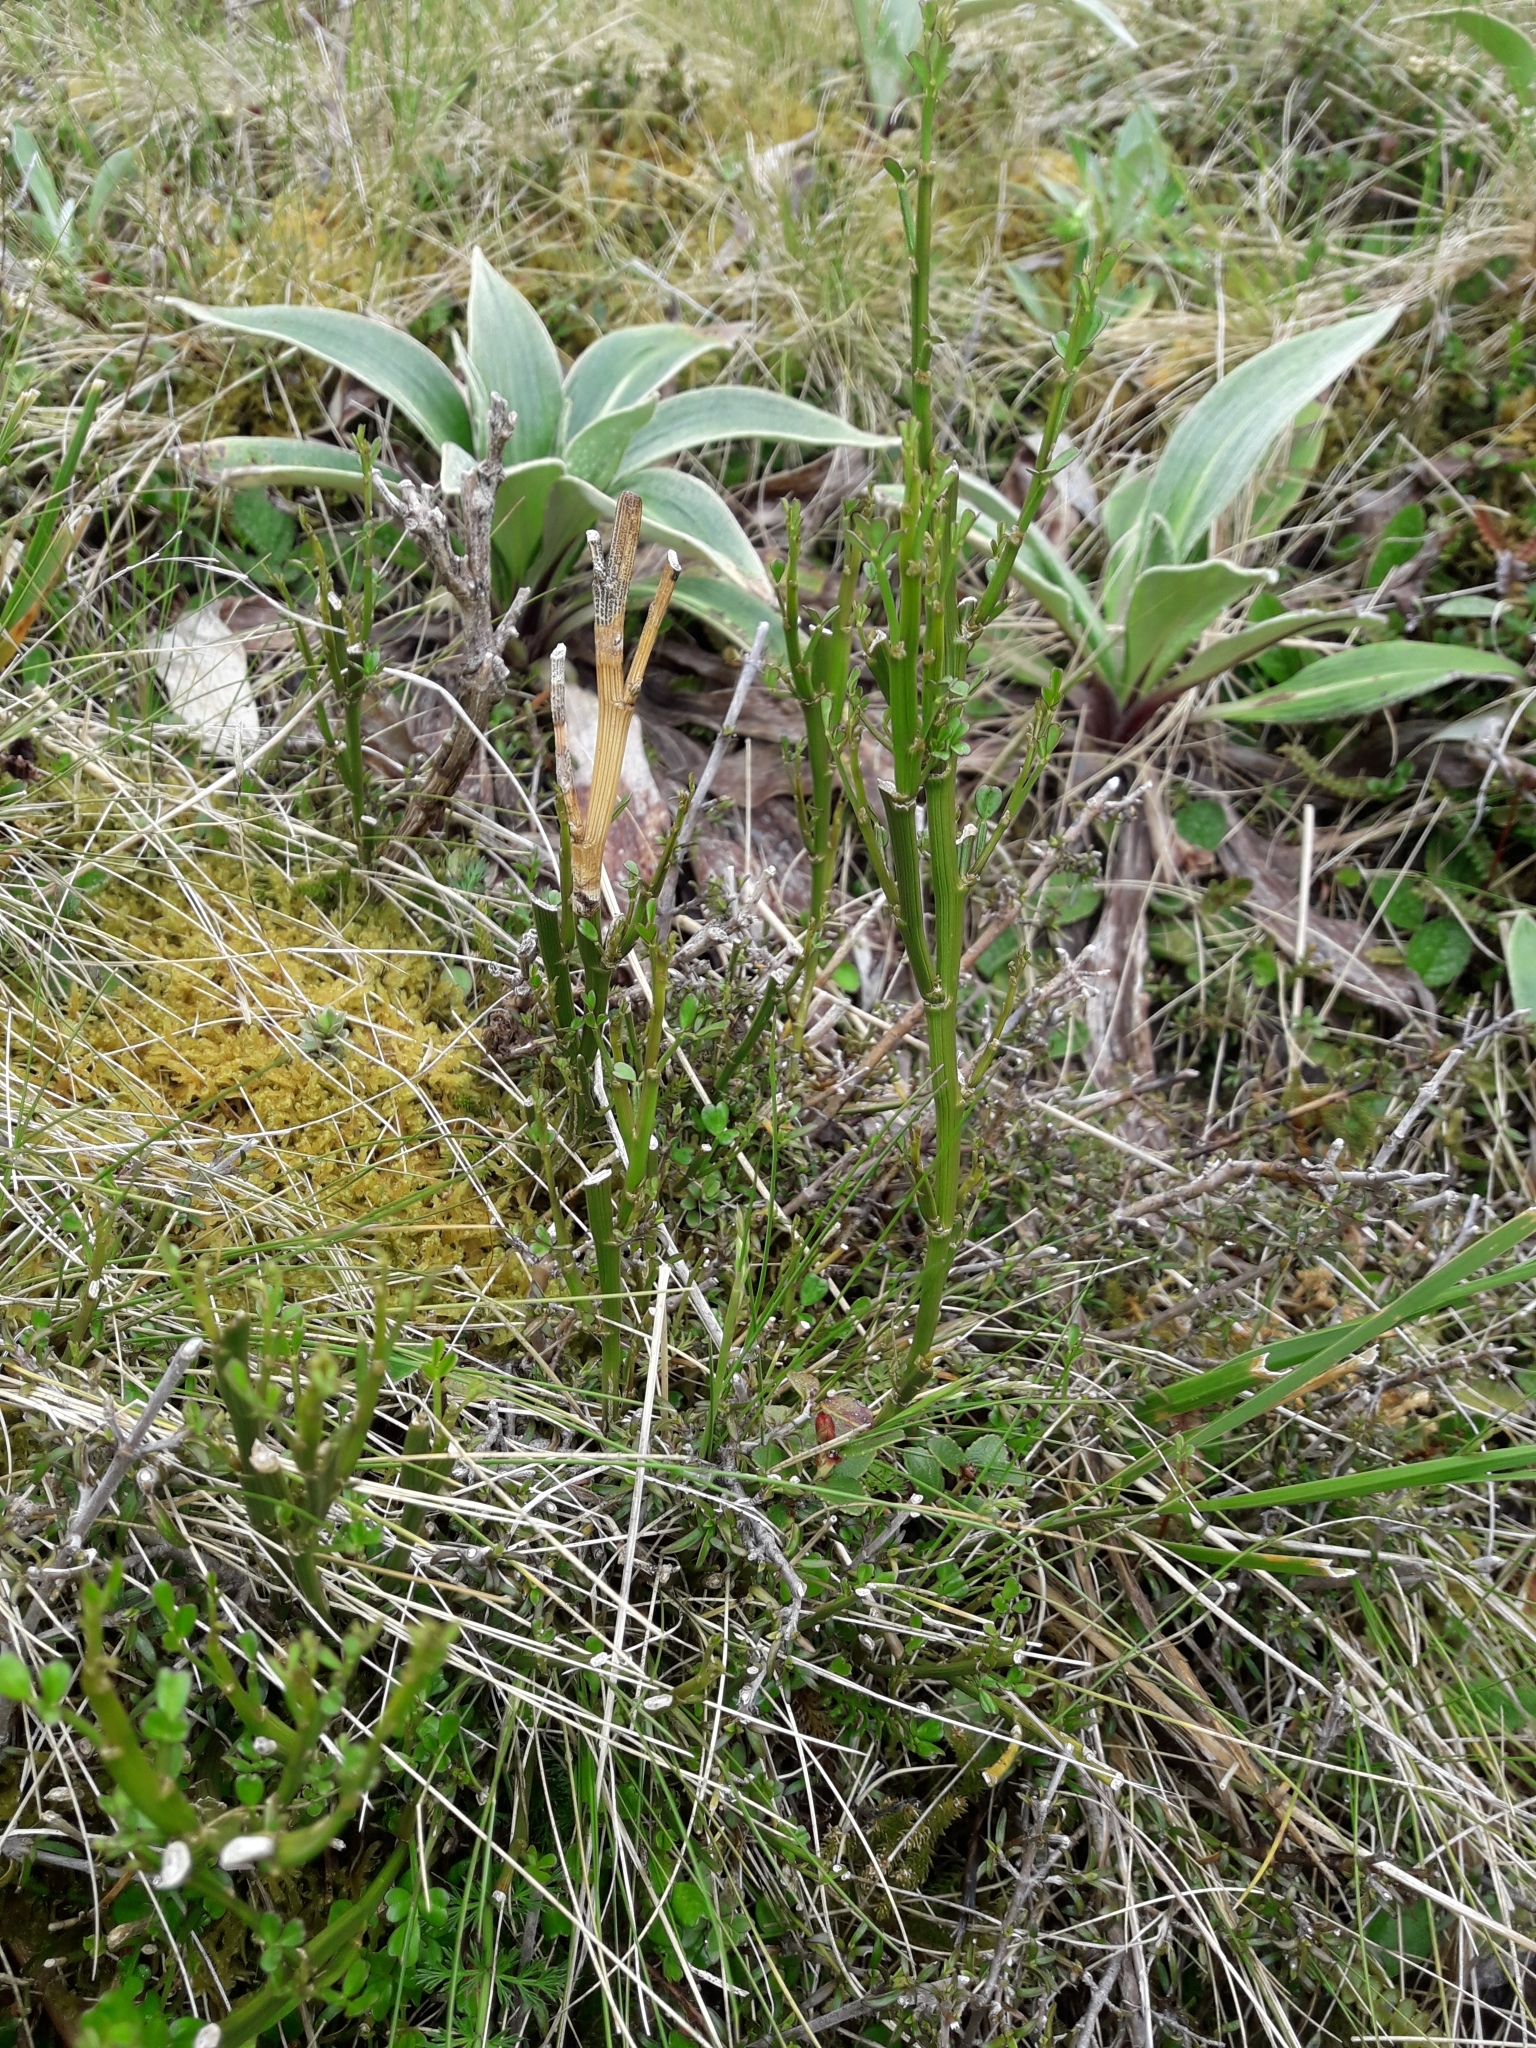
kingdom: Plantae
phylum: Tracheophyta
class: Magnoliopsida
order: Fabales
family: Fabaceae
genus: Carmichaelia
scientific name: Carmichaelia arborea
